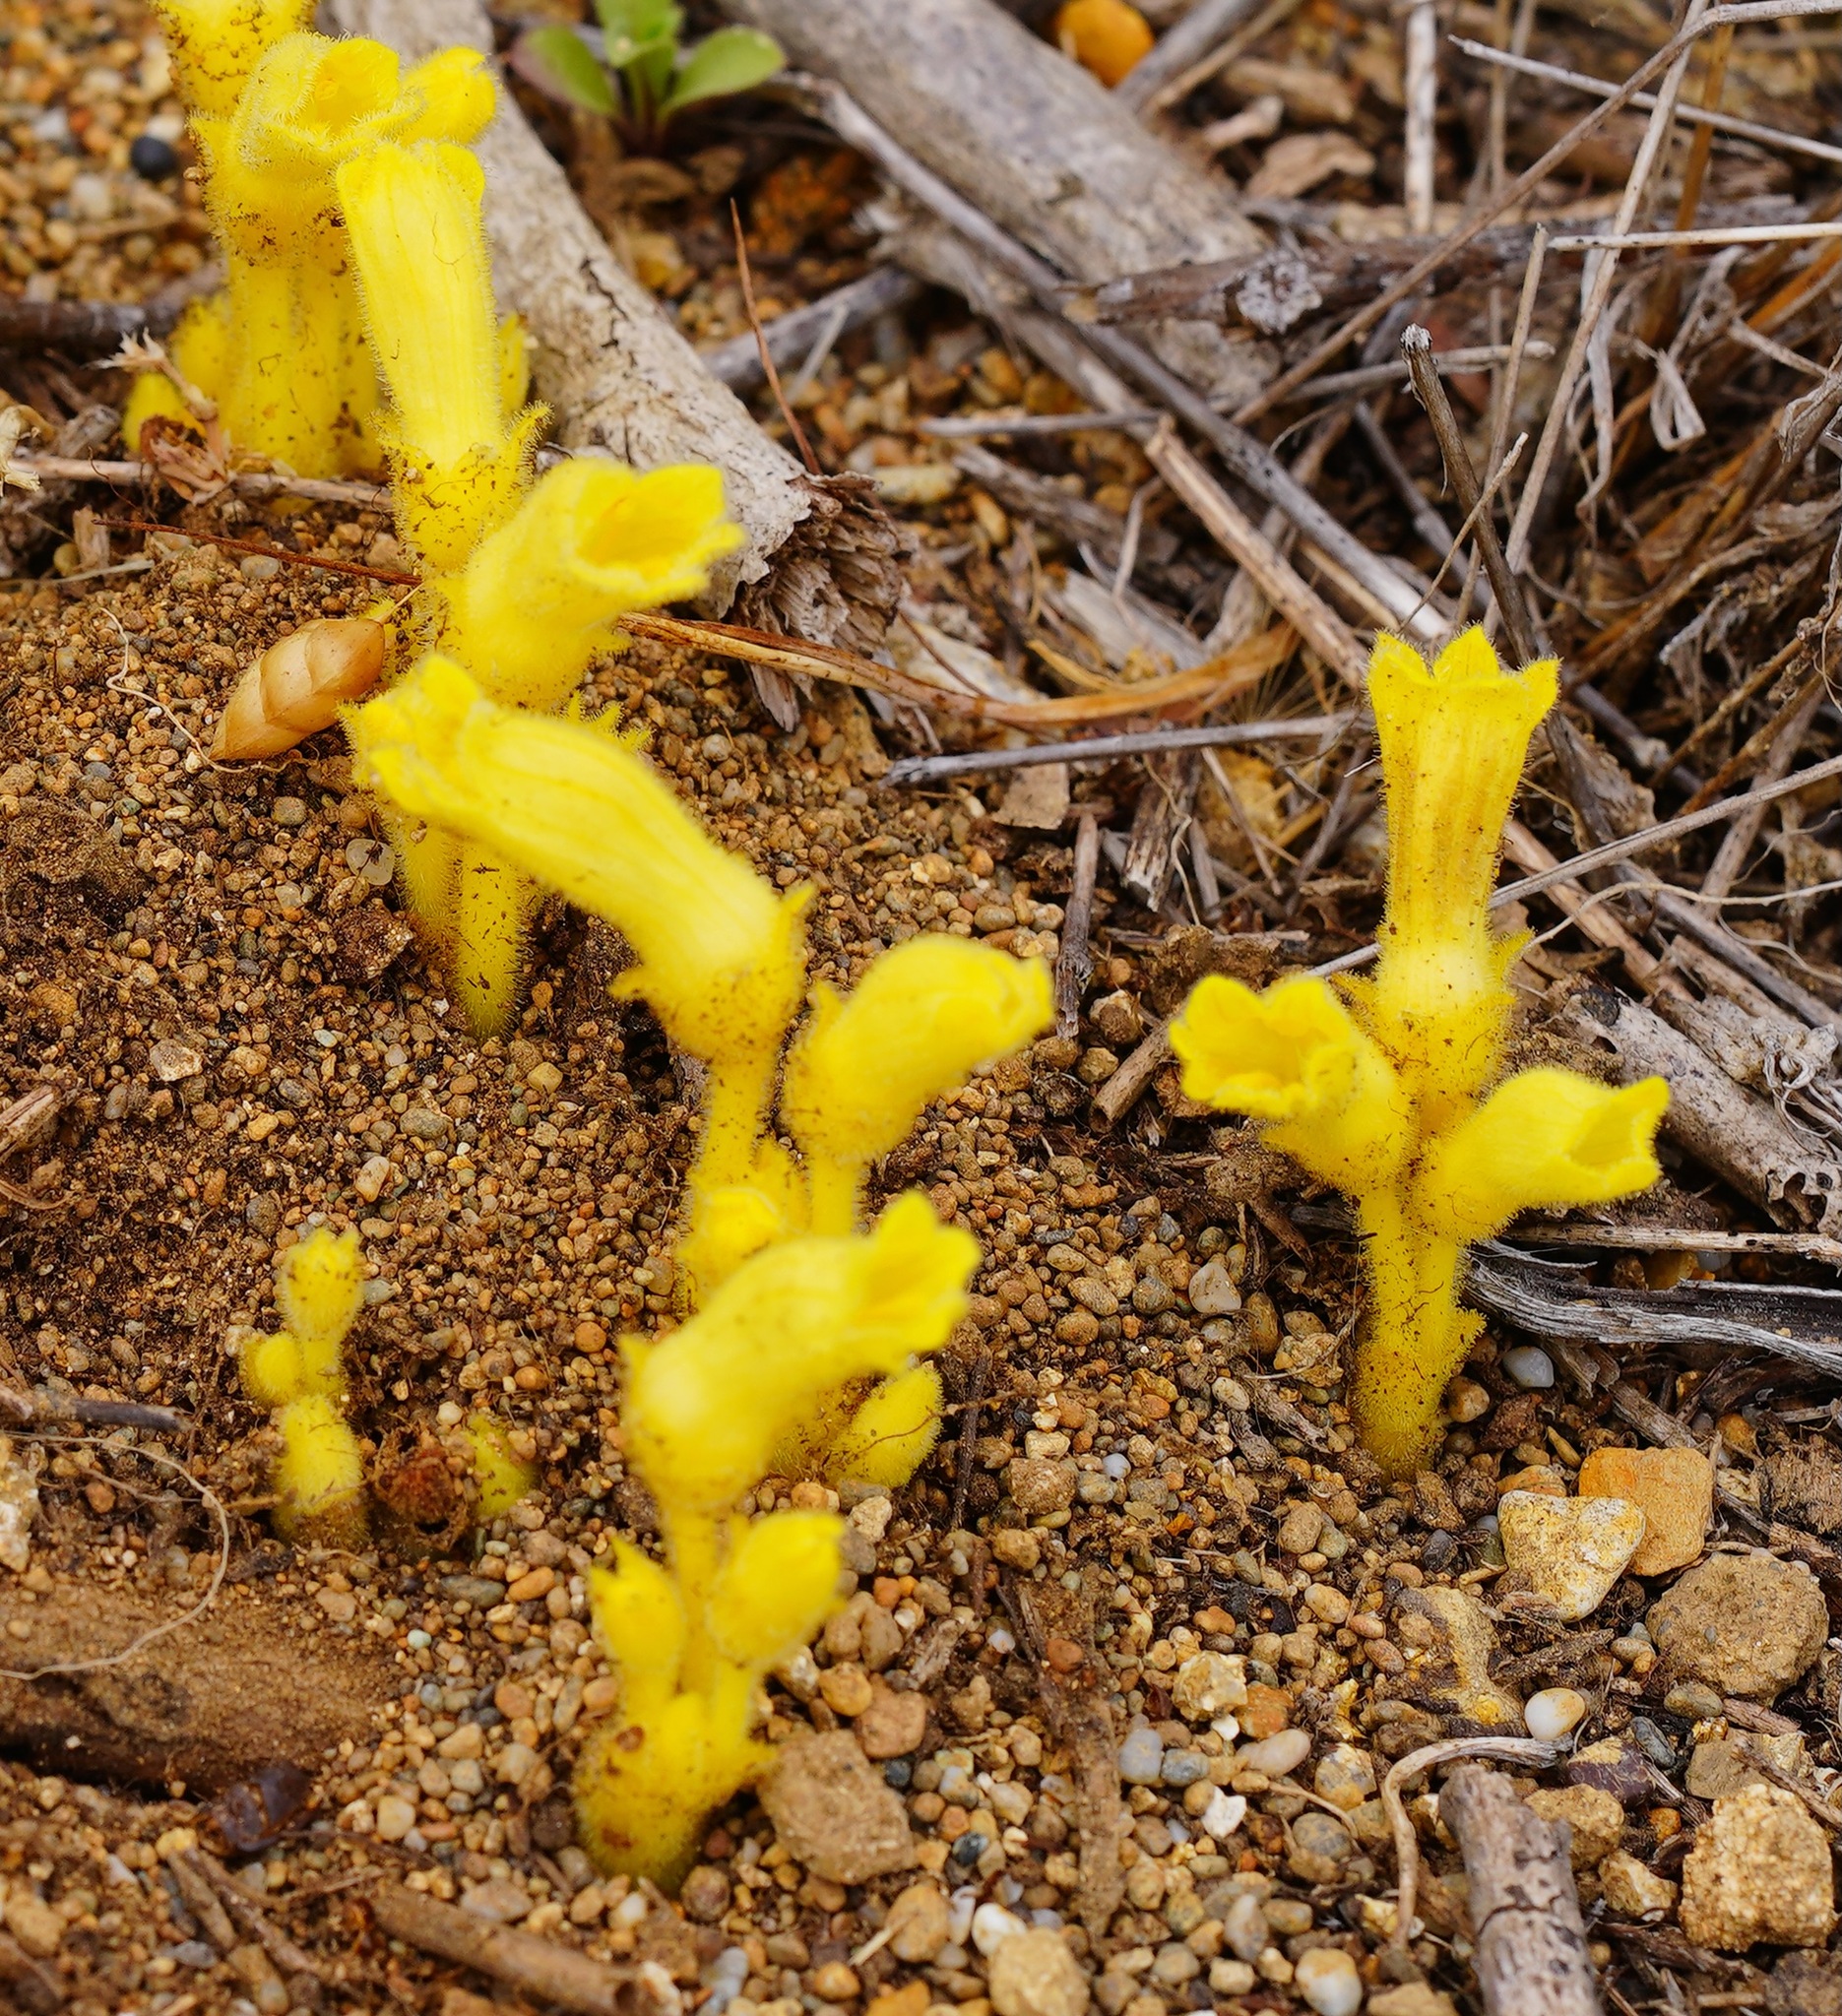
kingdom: Plantae
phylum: Tracheophyta
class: Magnoliopsida
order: Lamiales
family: Orobanchaceae
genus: Aphyllon
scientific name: Aphyllon franciscanum
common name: San francisco broomrape
